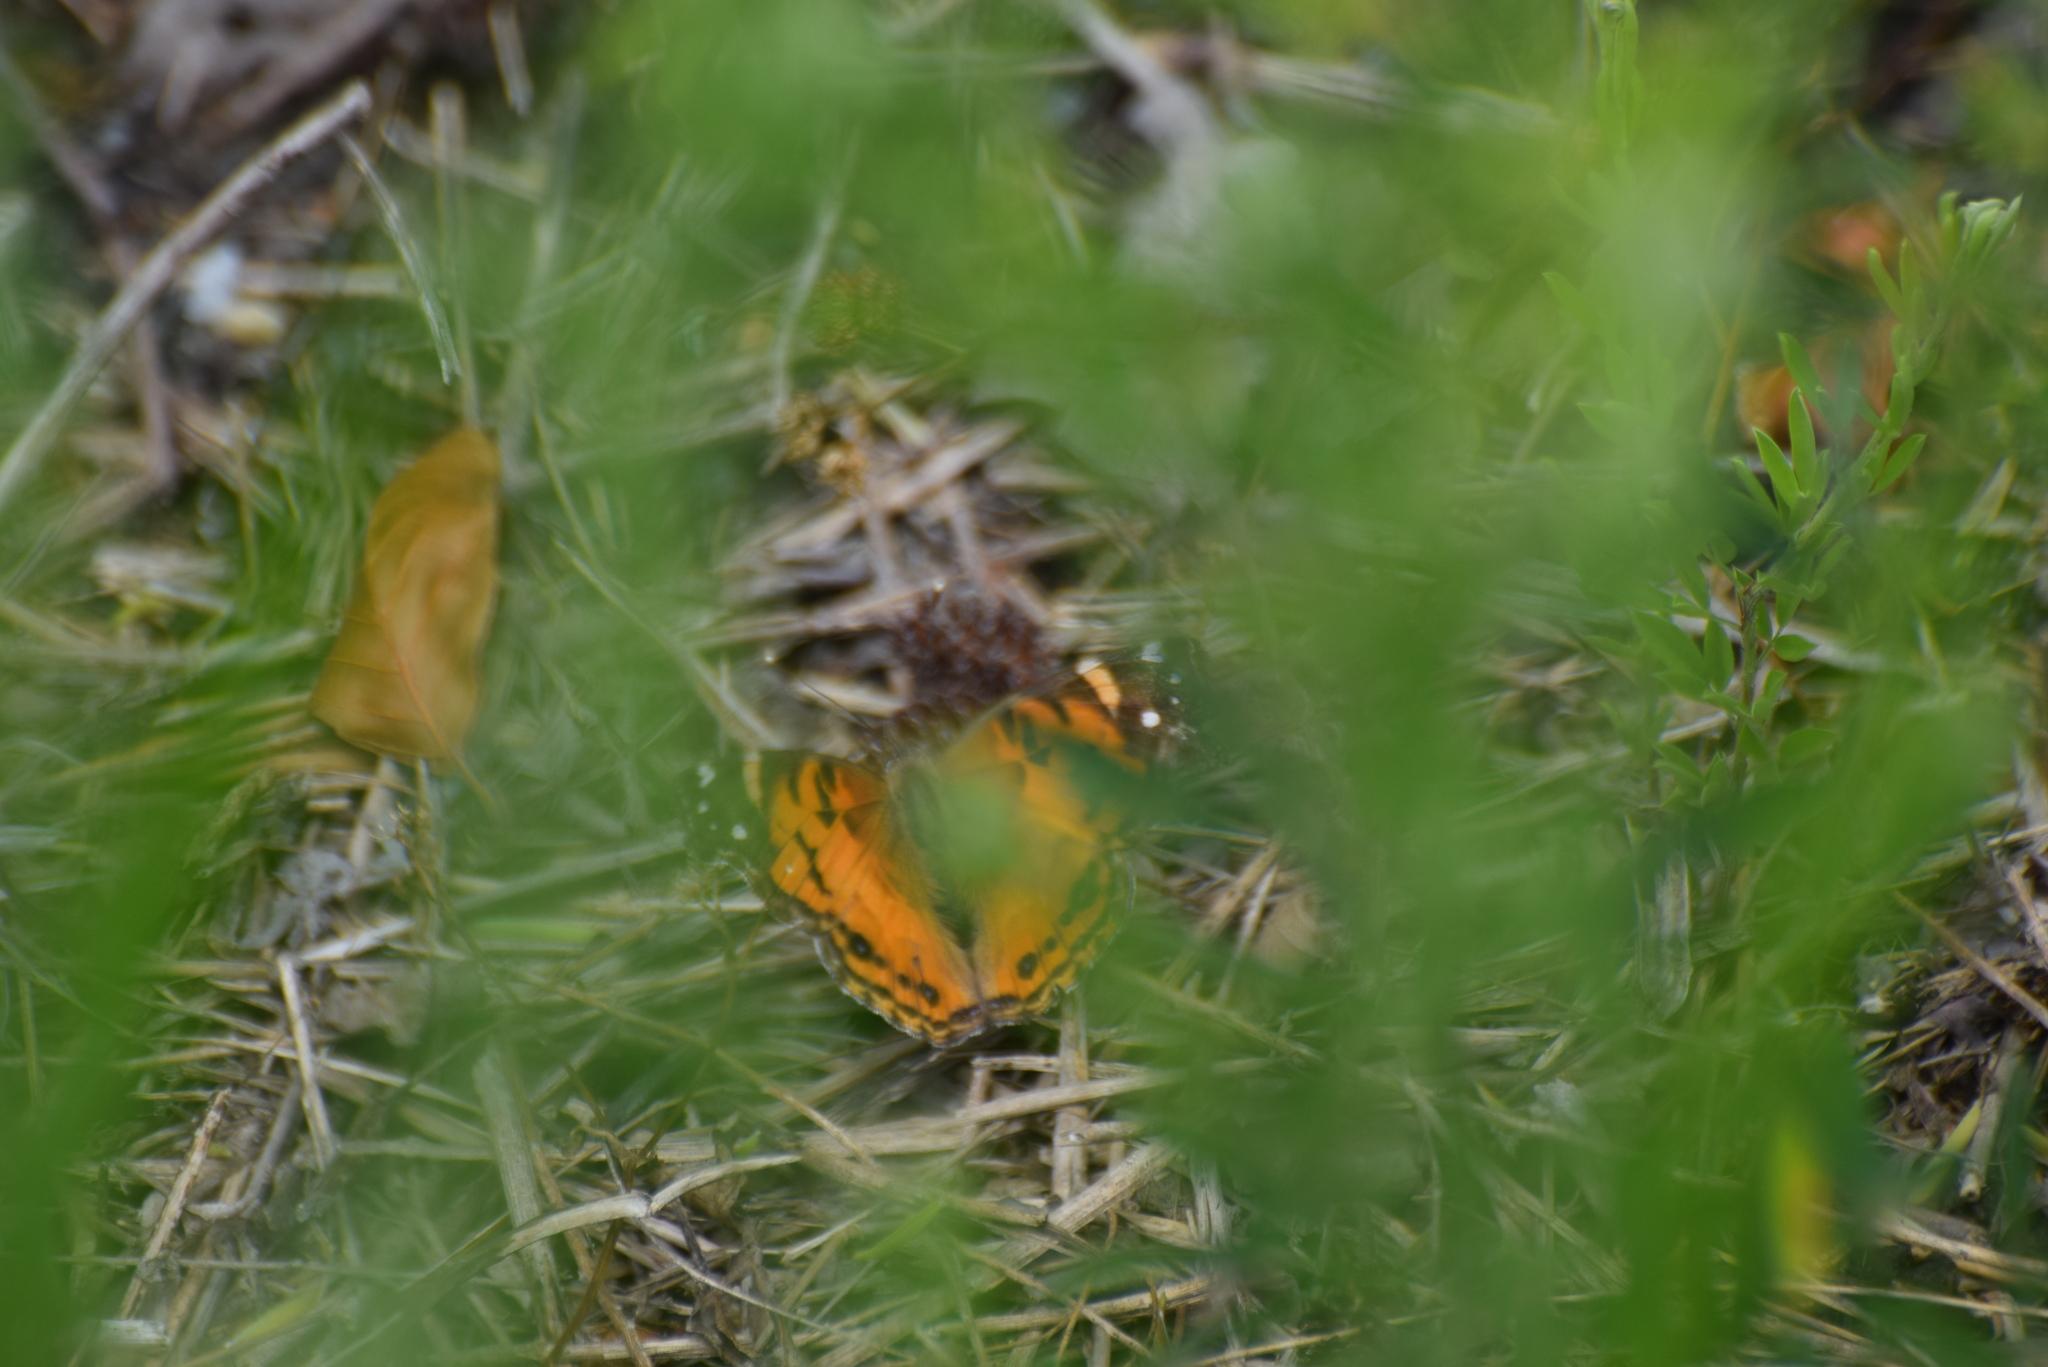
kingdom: Animalia
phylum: Arthropoda
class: Insecta
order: Lepidoptera
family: Nymphalidae
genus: Vanessa
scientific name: Vanessa virginiensis
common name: American lady
